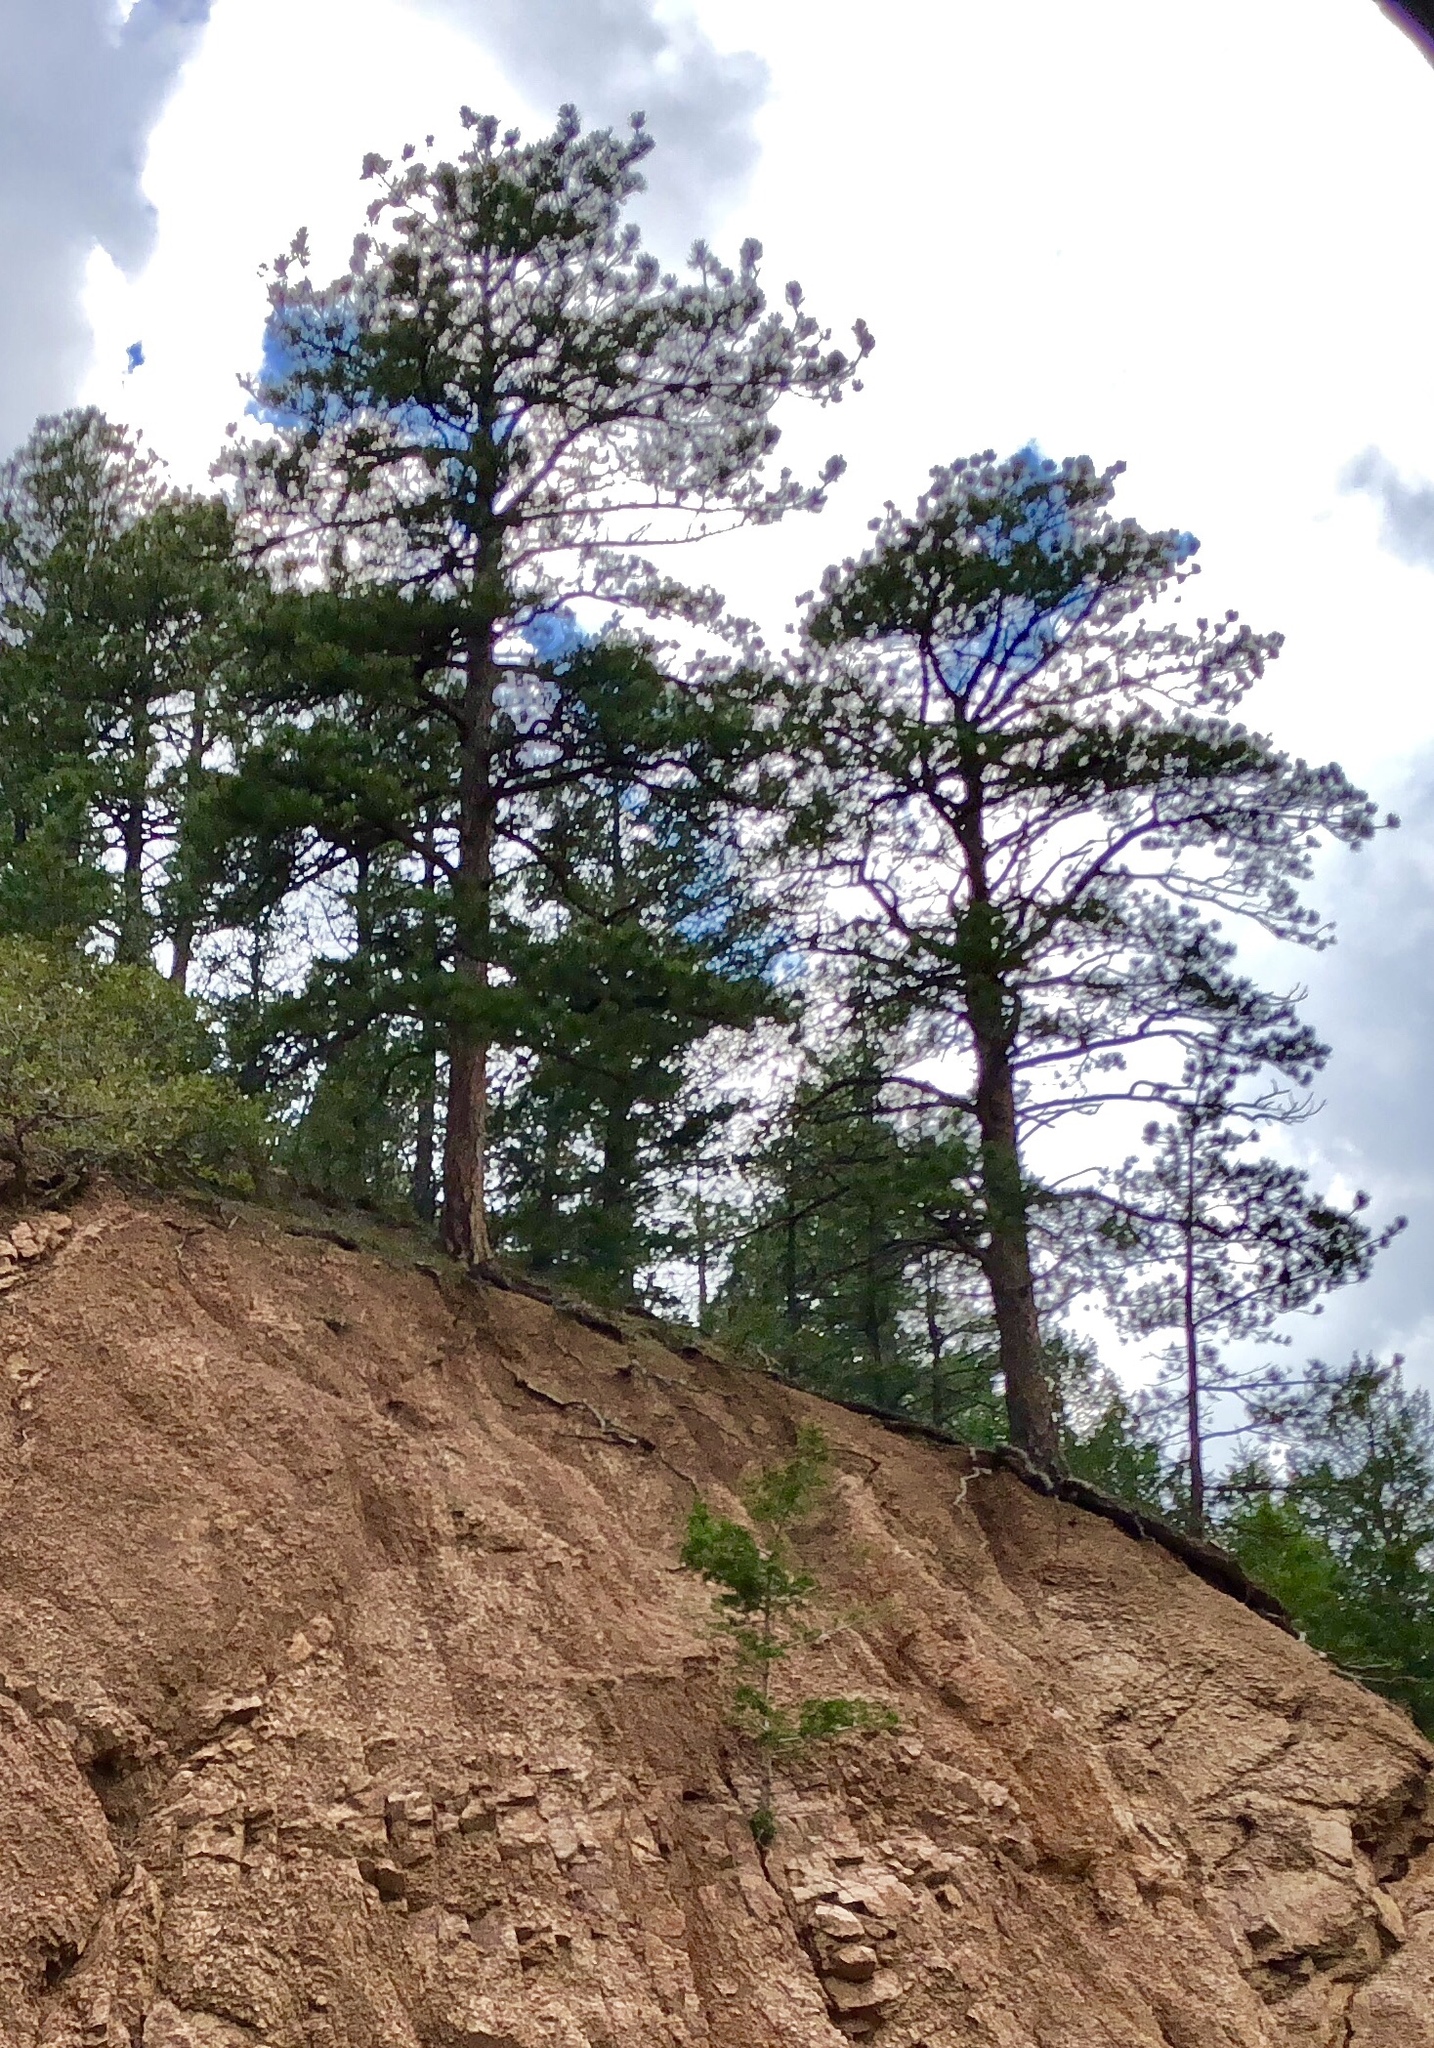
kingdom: Plantae
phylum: Tracheophyta
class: Pinopsida
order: Pinales
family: Pinaceae
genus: Pinus
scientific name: Pinus ponderosa
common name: Western yellow-pine
